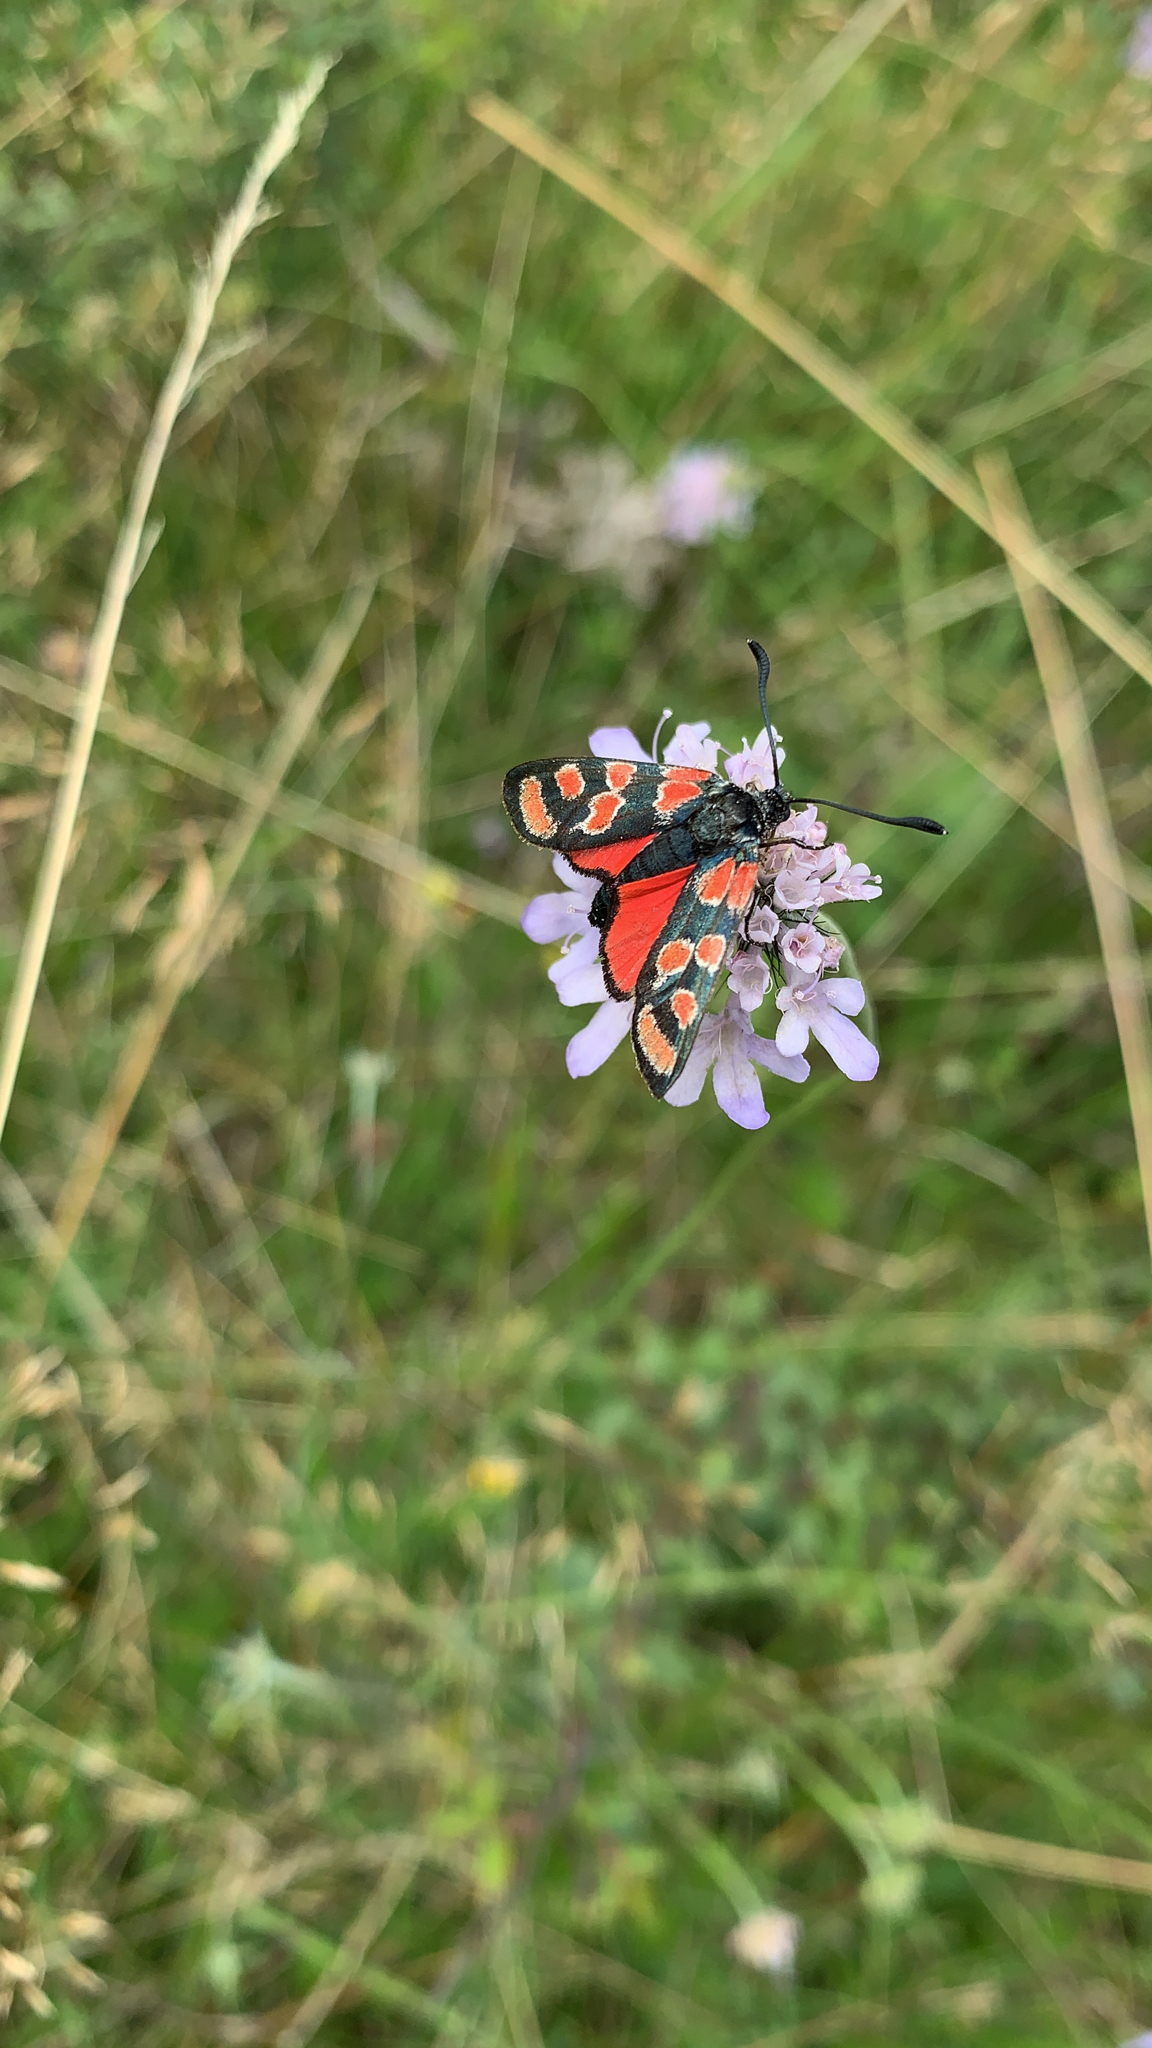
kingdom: Animalia
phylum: Arthropoda
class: Insecta
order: Lepidoptera
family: Zygaenidae
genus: Zygaena
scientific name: Zygaena carniolica
